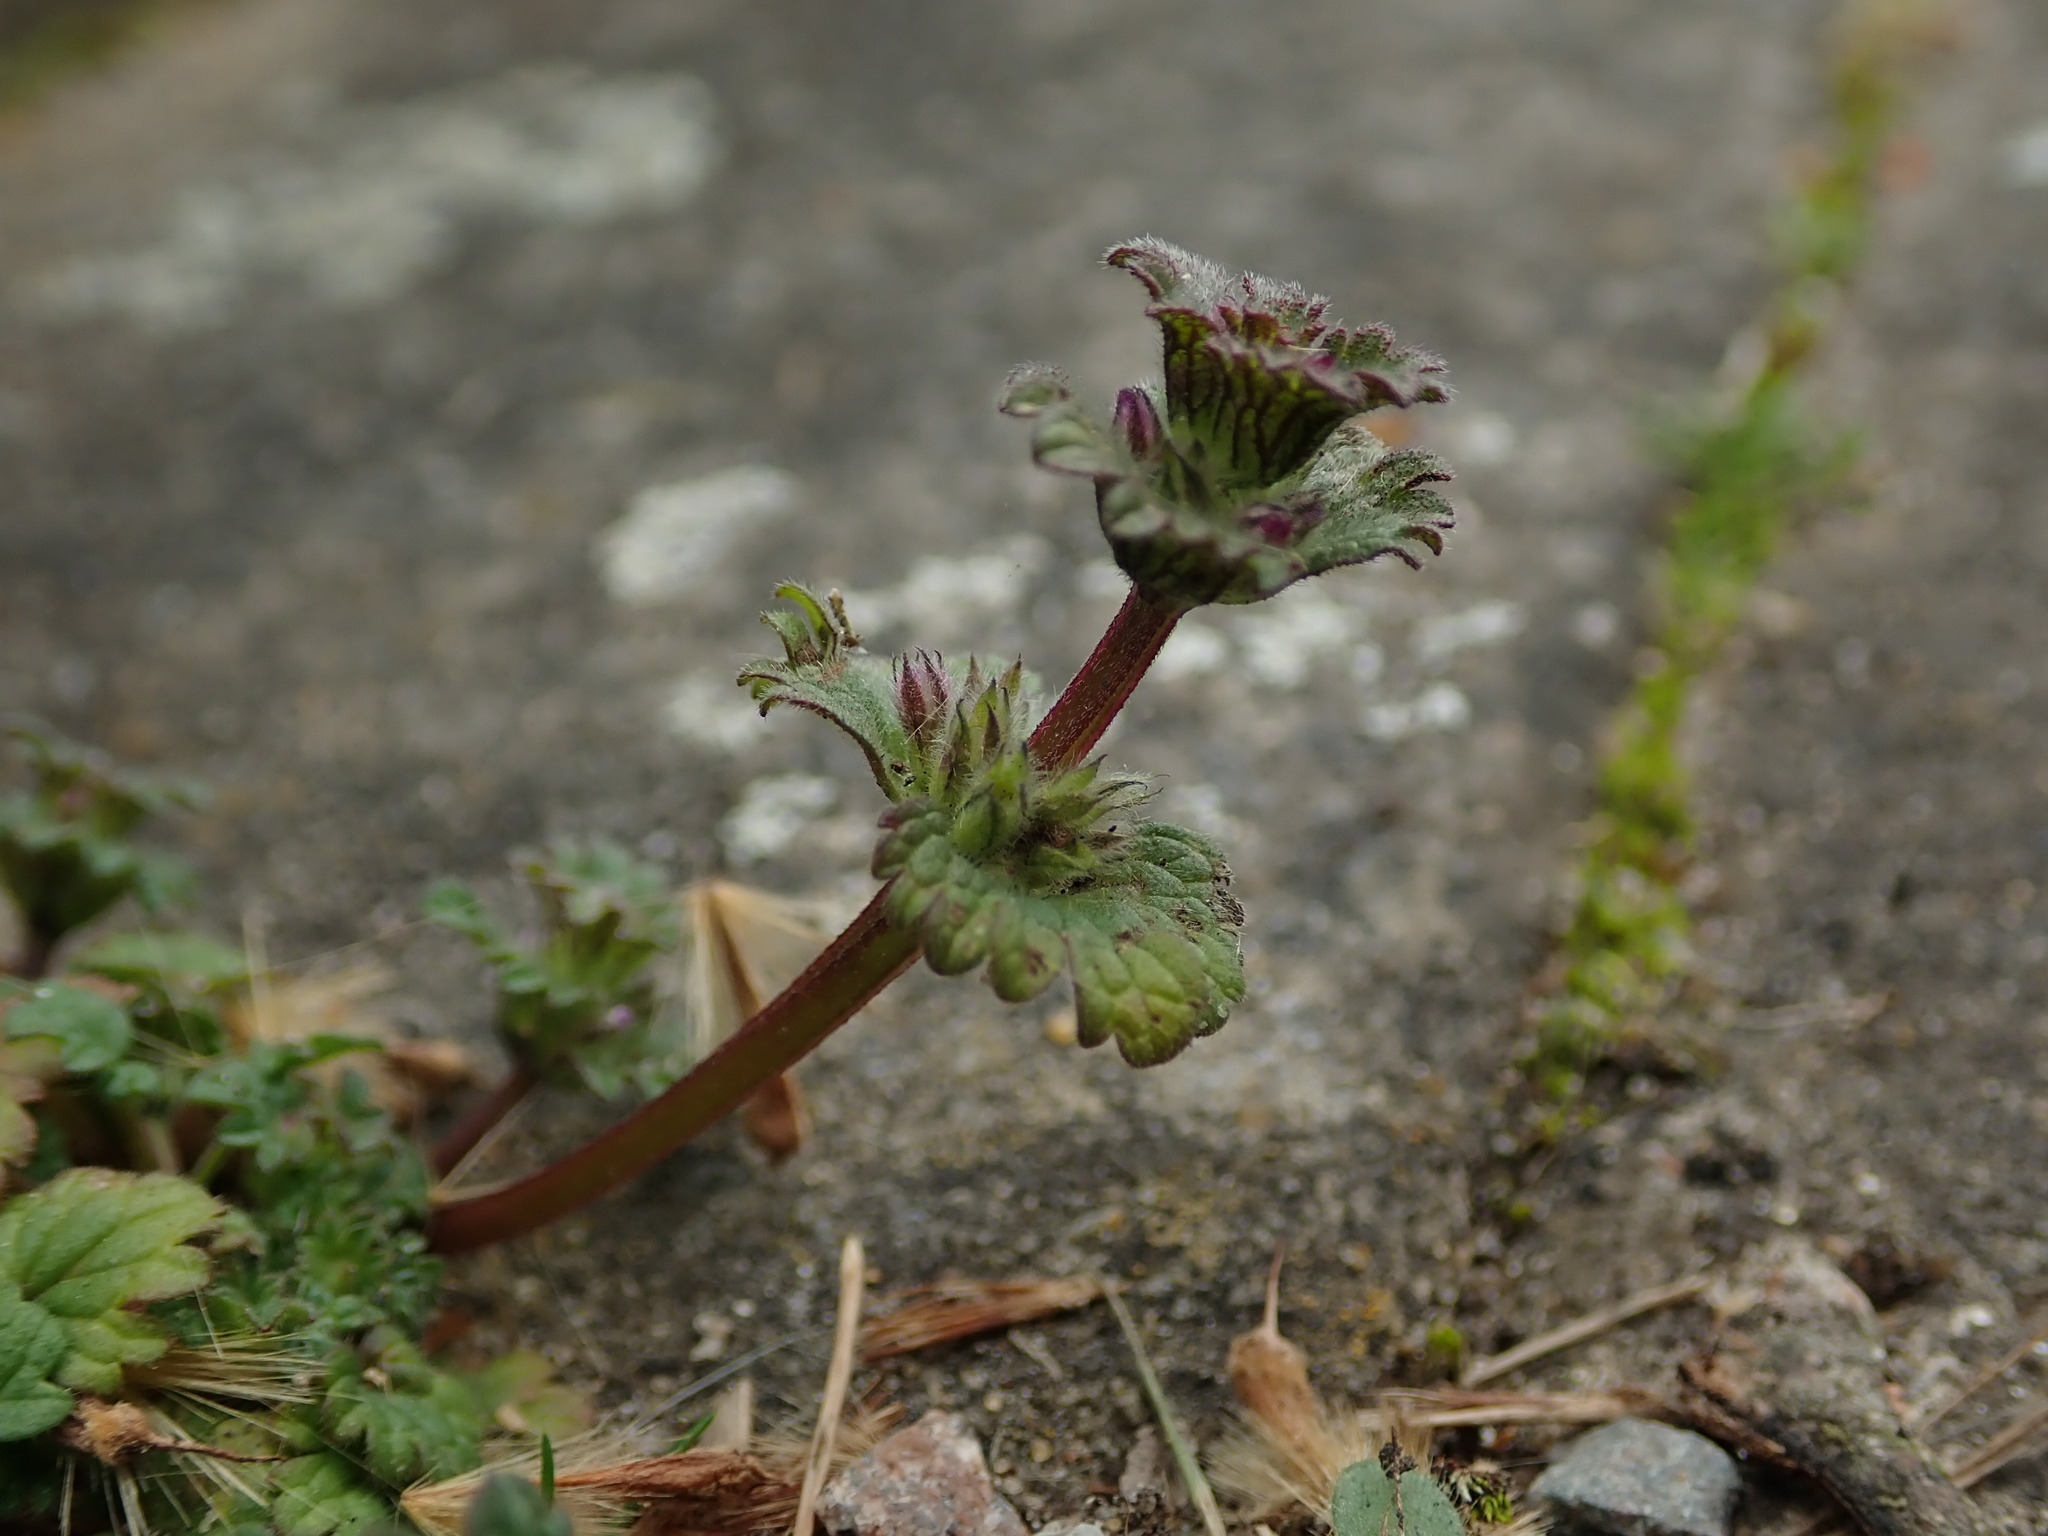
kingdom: Plantae
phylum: Tracheophyta
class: Magnoliopsida
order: Lamiales
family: Lamiaceae
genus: Lamium
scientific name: Lamium amplexicaule
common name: Henbit dead-nettle
